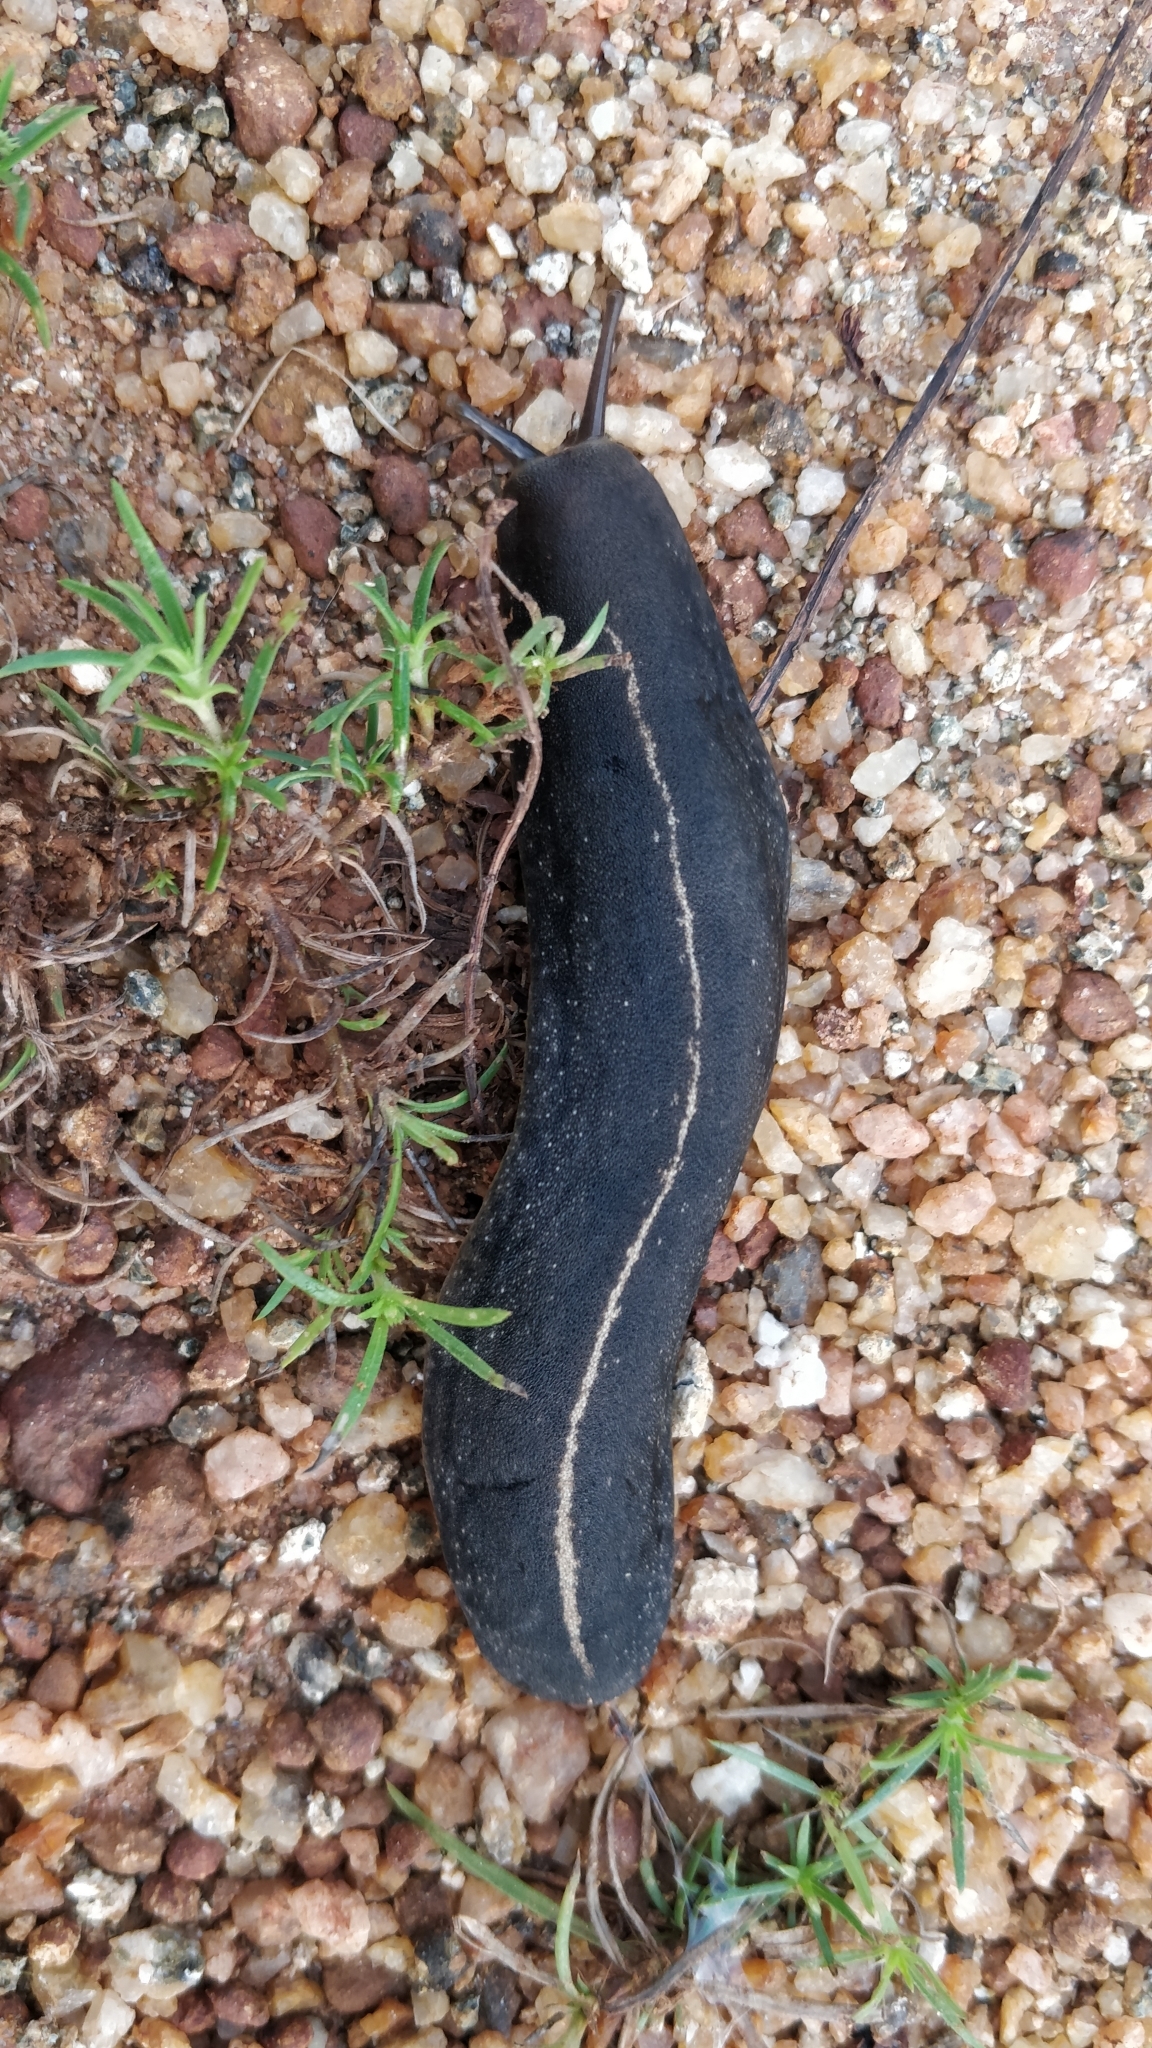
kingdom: Animalia
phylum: Mollusca
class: Gastropoda
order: Systellommatophora
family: Veronicellidae
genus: Laevicaulis
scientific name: Laevicaulis alte
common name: Tropical leatherleaf
